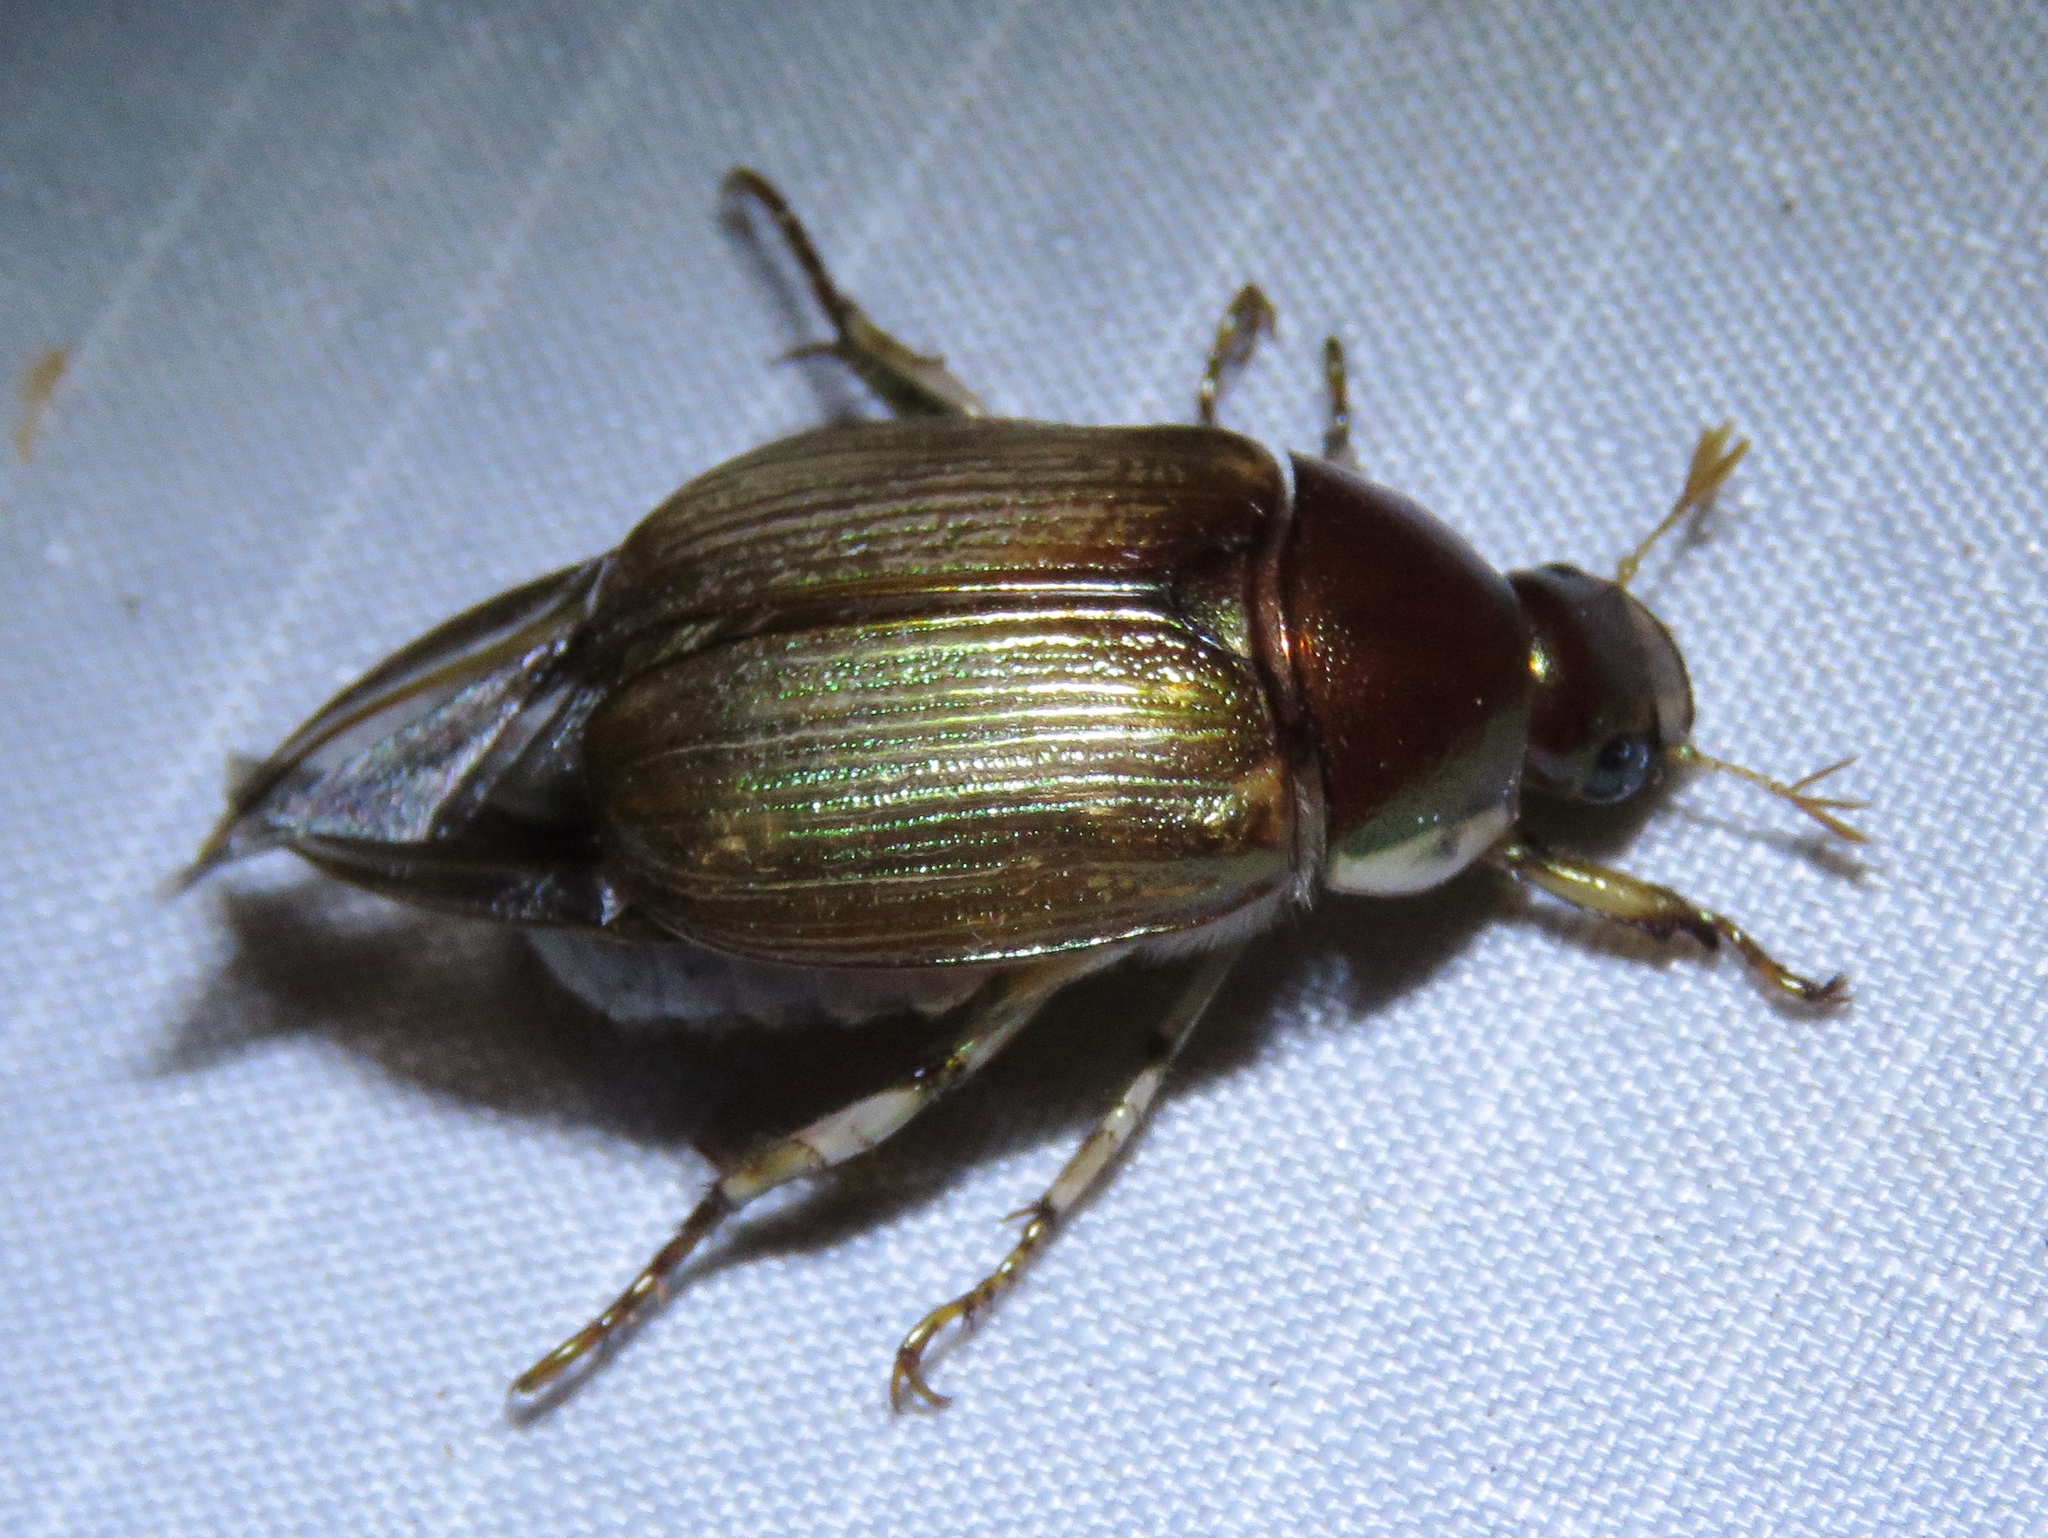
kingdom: Animalia
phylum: Arthropoda
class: Insecta
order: Coleoptera
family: Scarabaeidae
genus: Callistethus
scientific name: Callistethus marginatus
